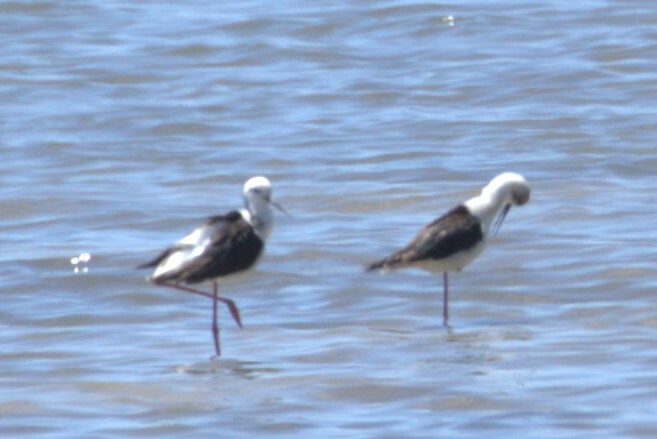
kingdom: Animalia
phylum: Chordata
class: Aves
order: Charadriiformes
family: Recurvirostridae
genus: Himantopus
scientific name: Himantopus leucocephalus
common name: White-headed stilt
